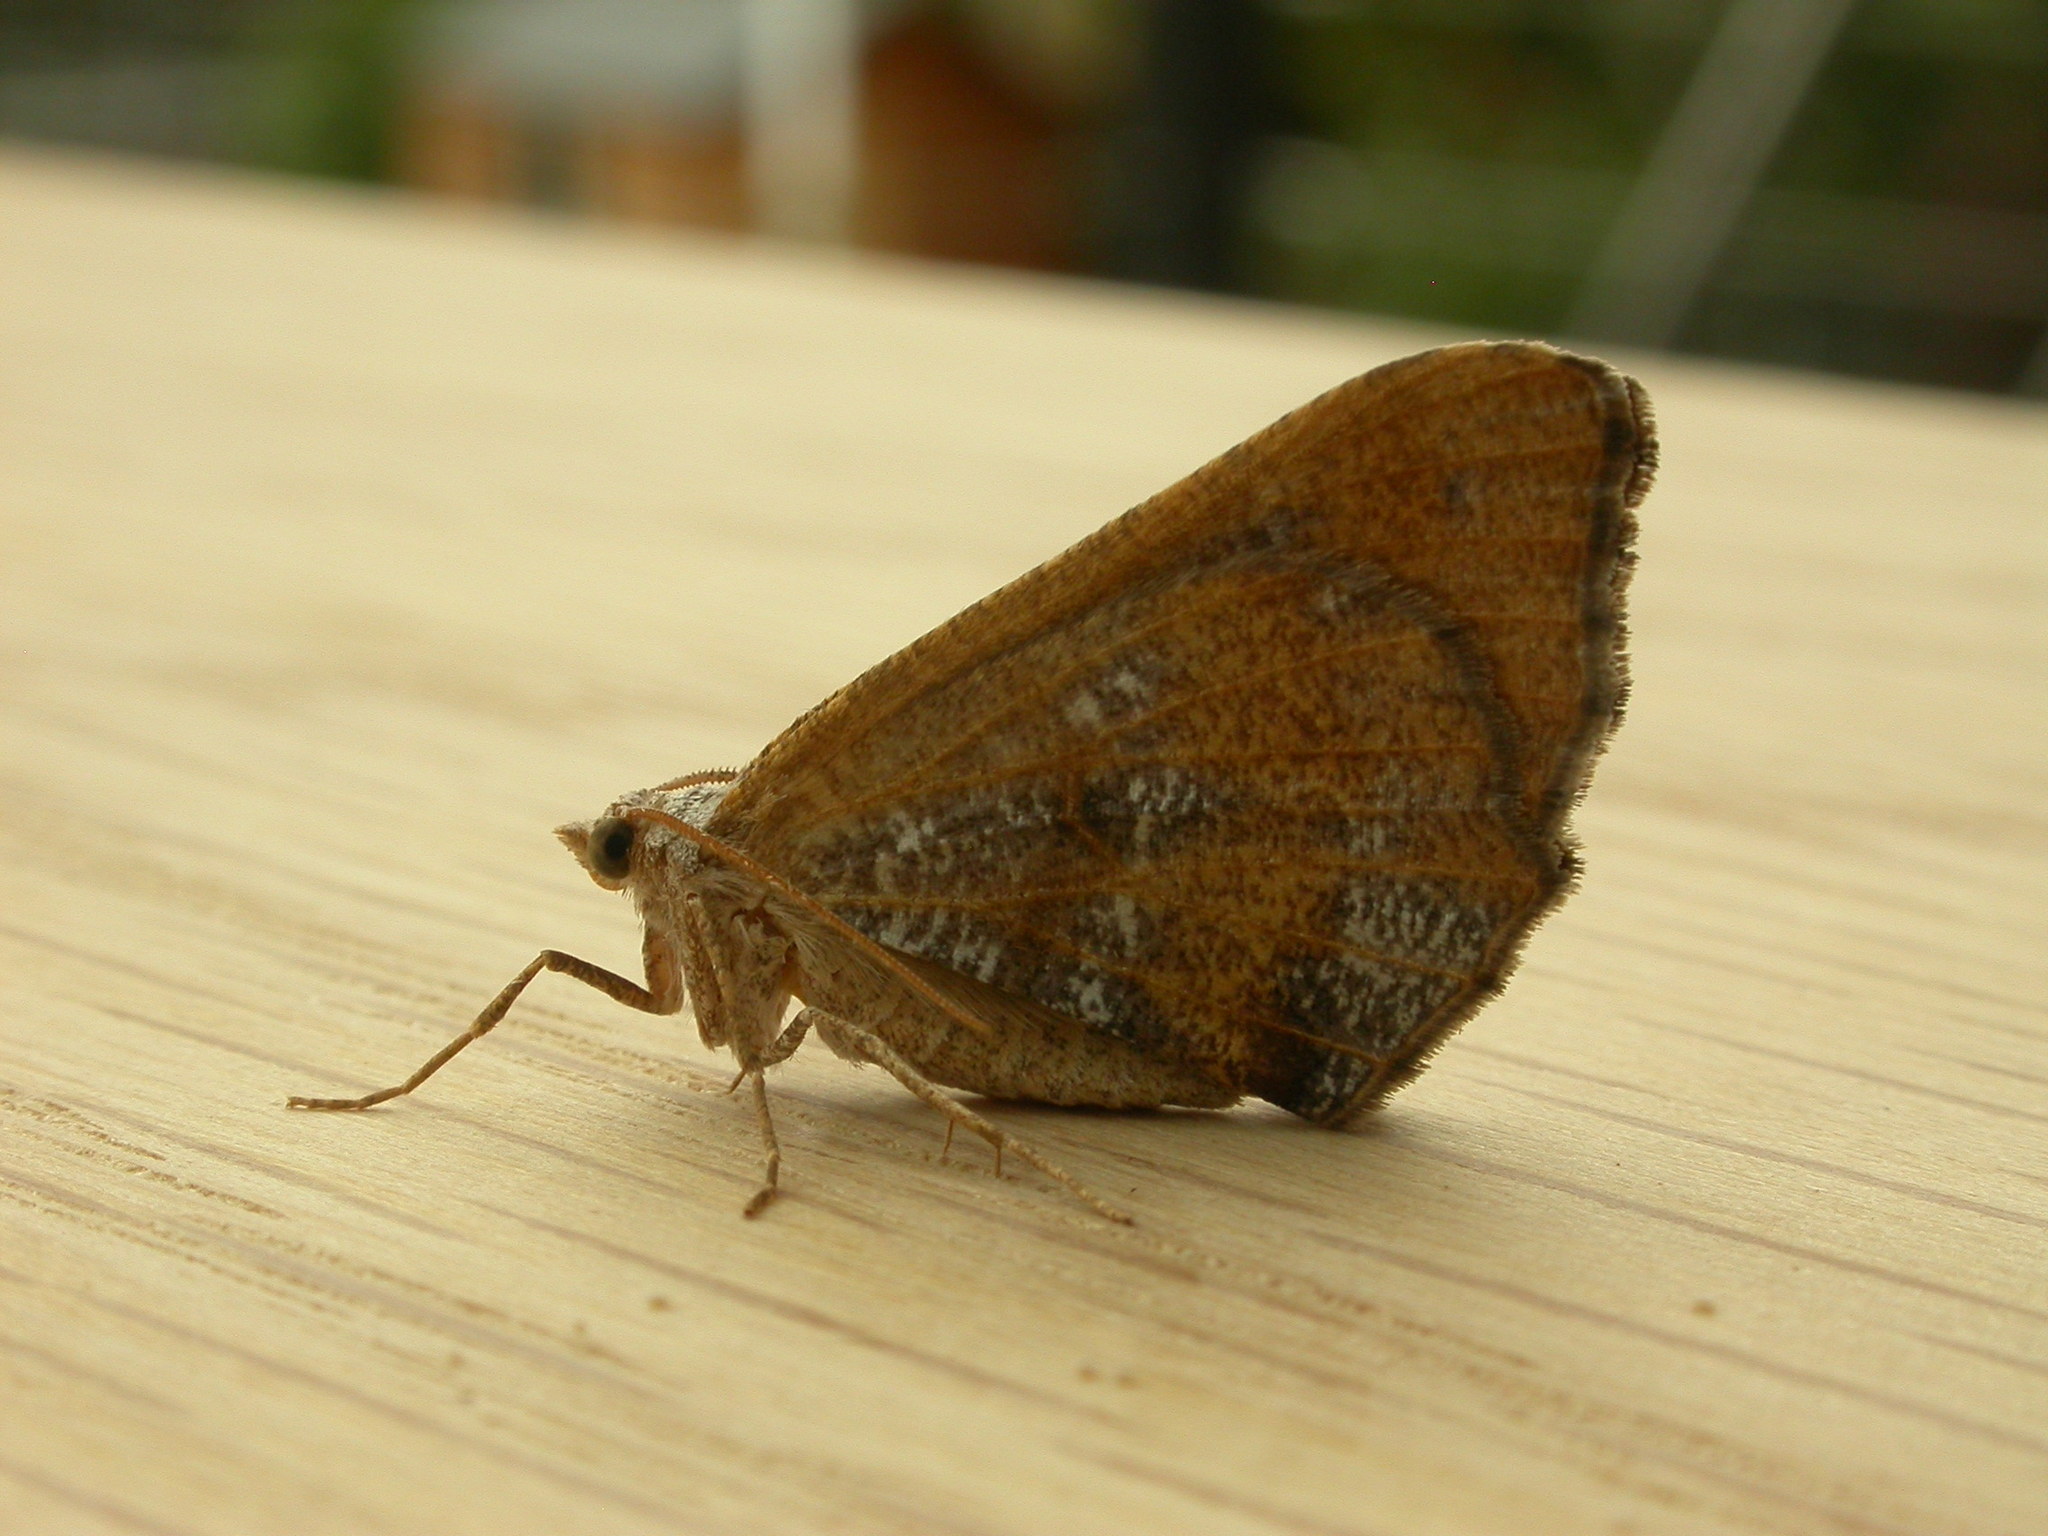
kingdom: Animalia
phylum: Arthropoda
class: Insecta
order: Lepidoptera
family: Geometridae
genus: Dissomorphia
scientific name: Dissomorphia australiaria
